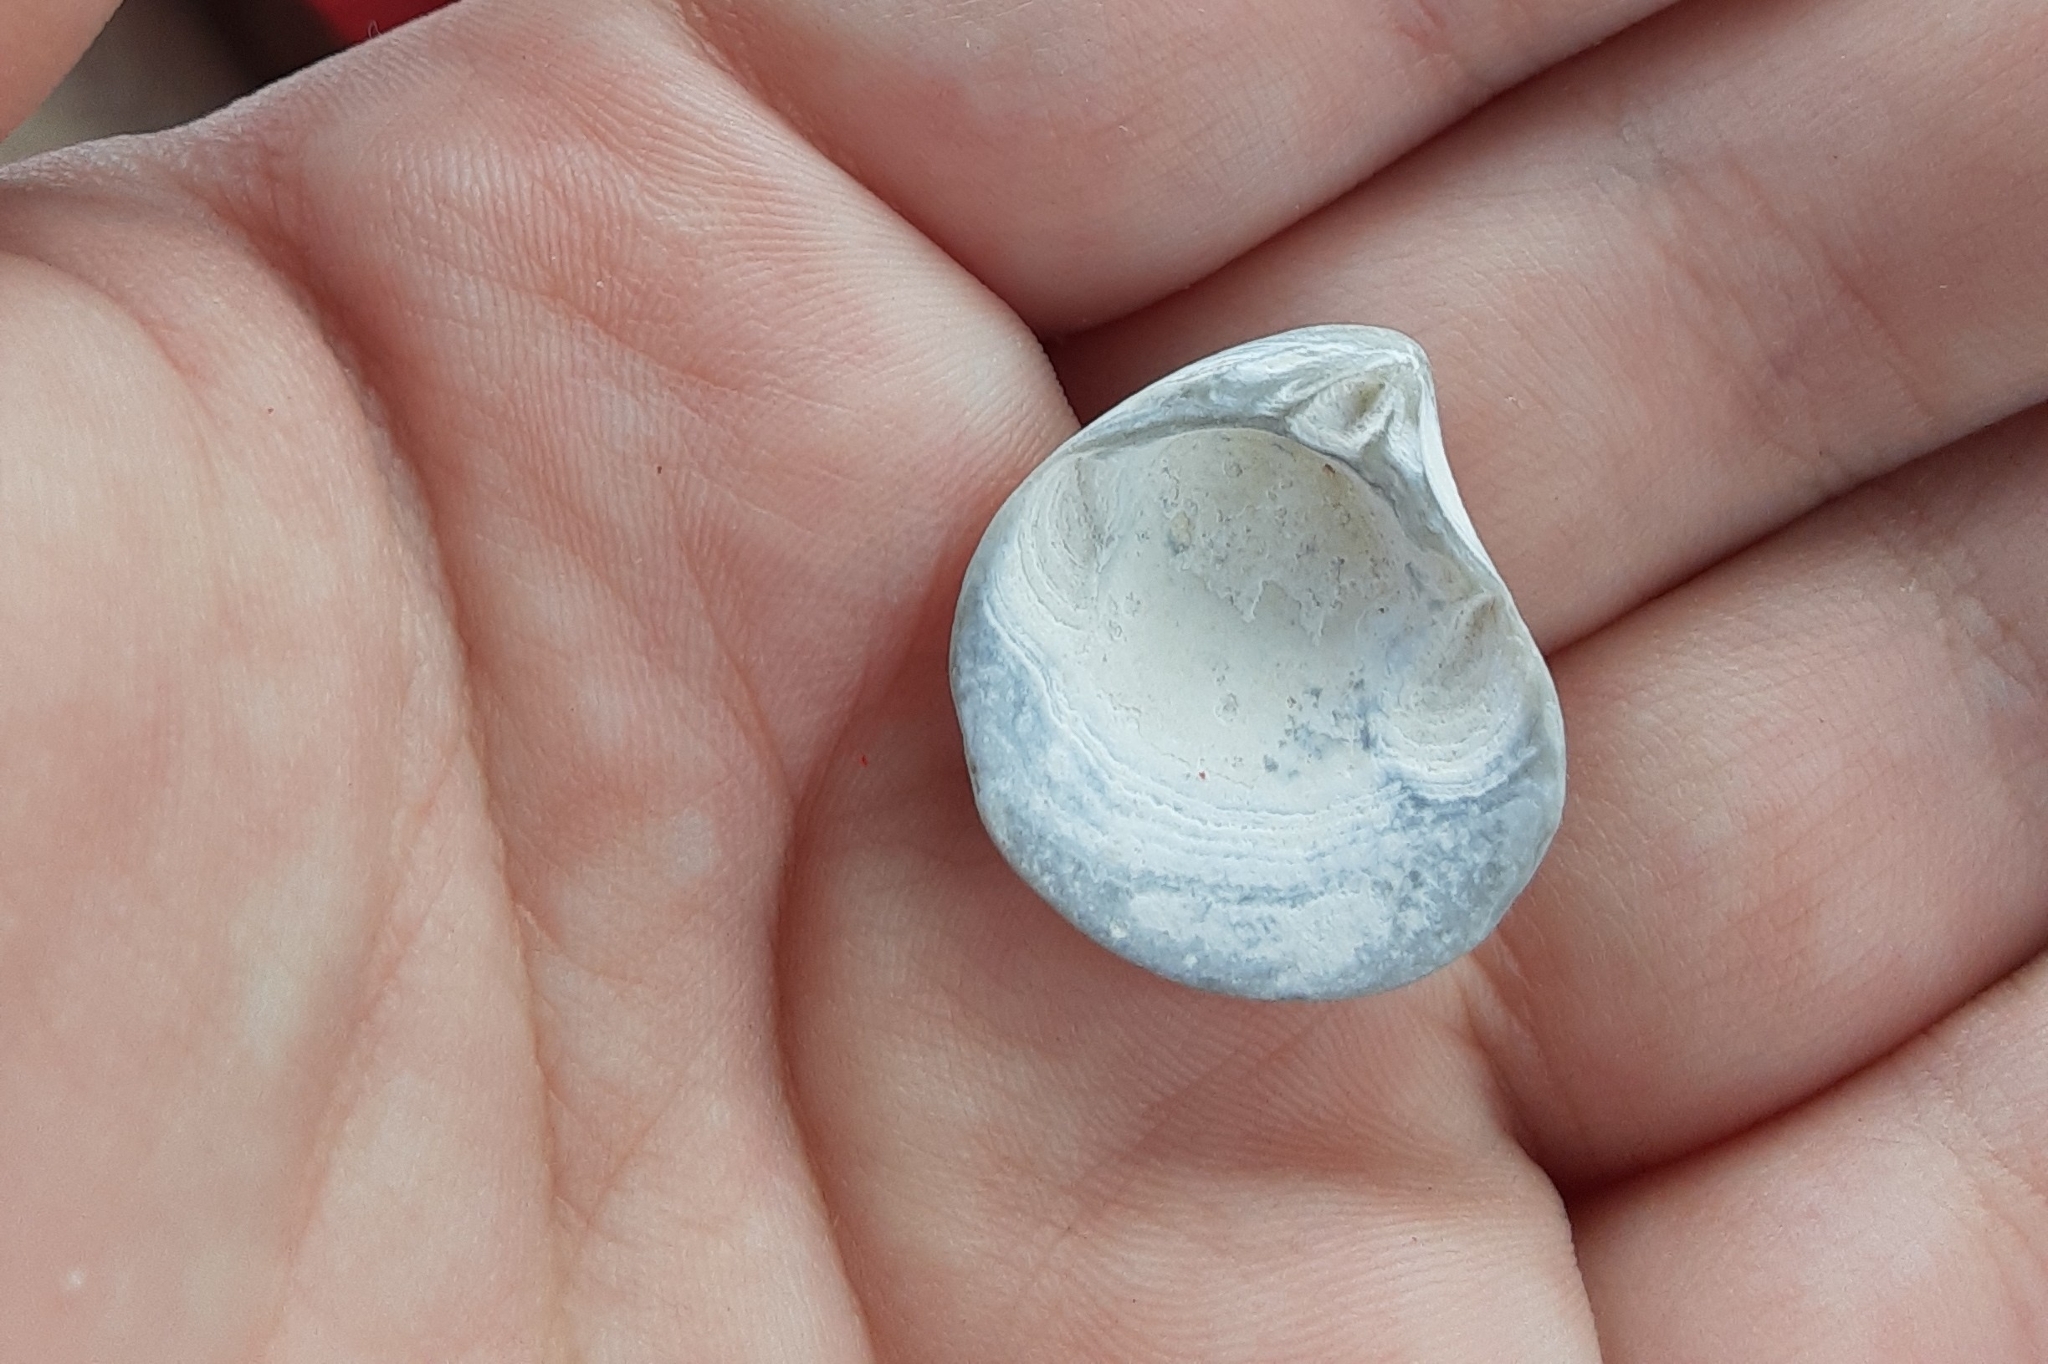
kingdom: Animalia
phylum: Mollusca
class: Bivalvia
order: Cardiida
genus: Isocrassina
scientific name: Isocrassina
